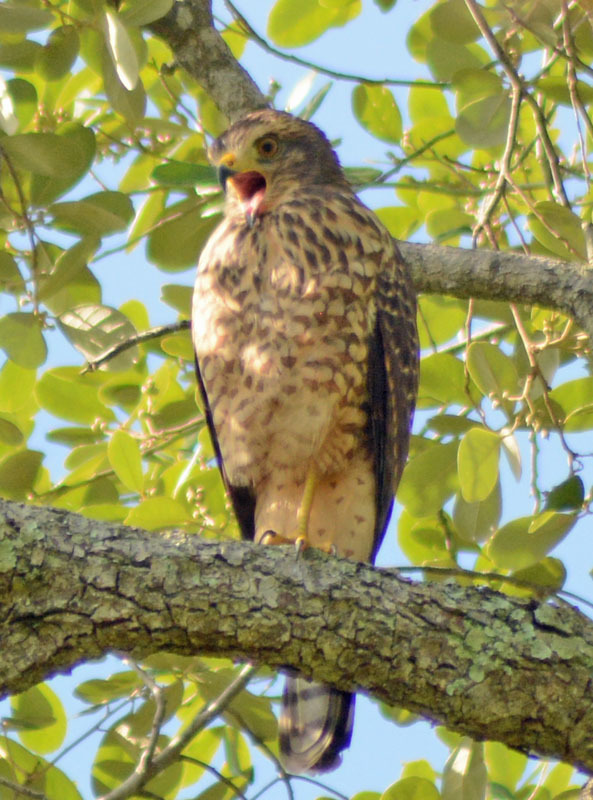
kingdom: Animalia
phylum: Chordata
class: Aves
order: Accipitriformes
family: Accipitridae
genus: Rupornis
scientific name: Rupornis magnirostris
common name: Roadside hawk
